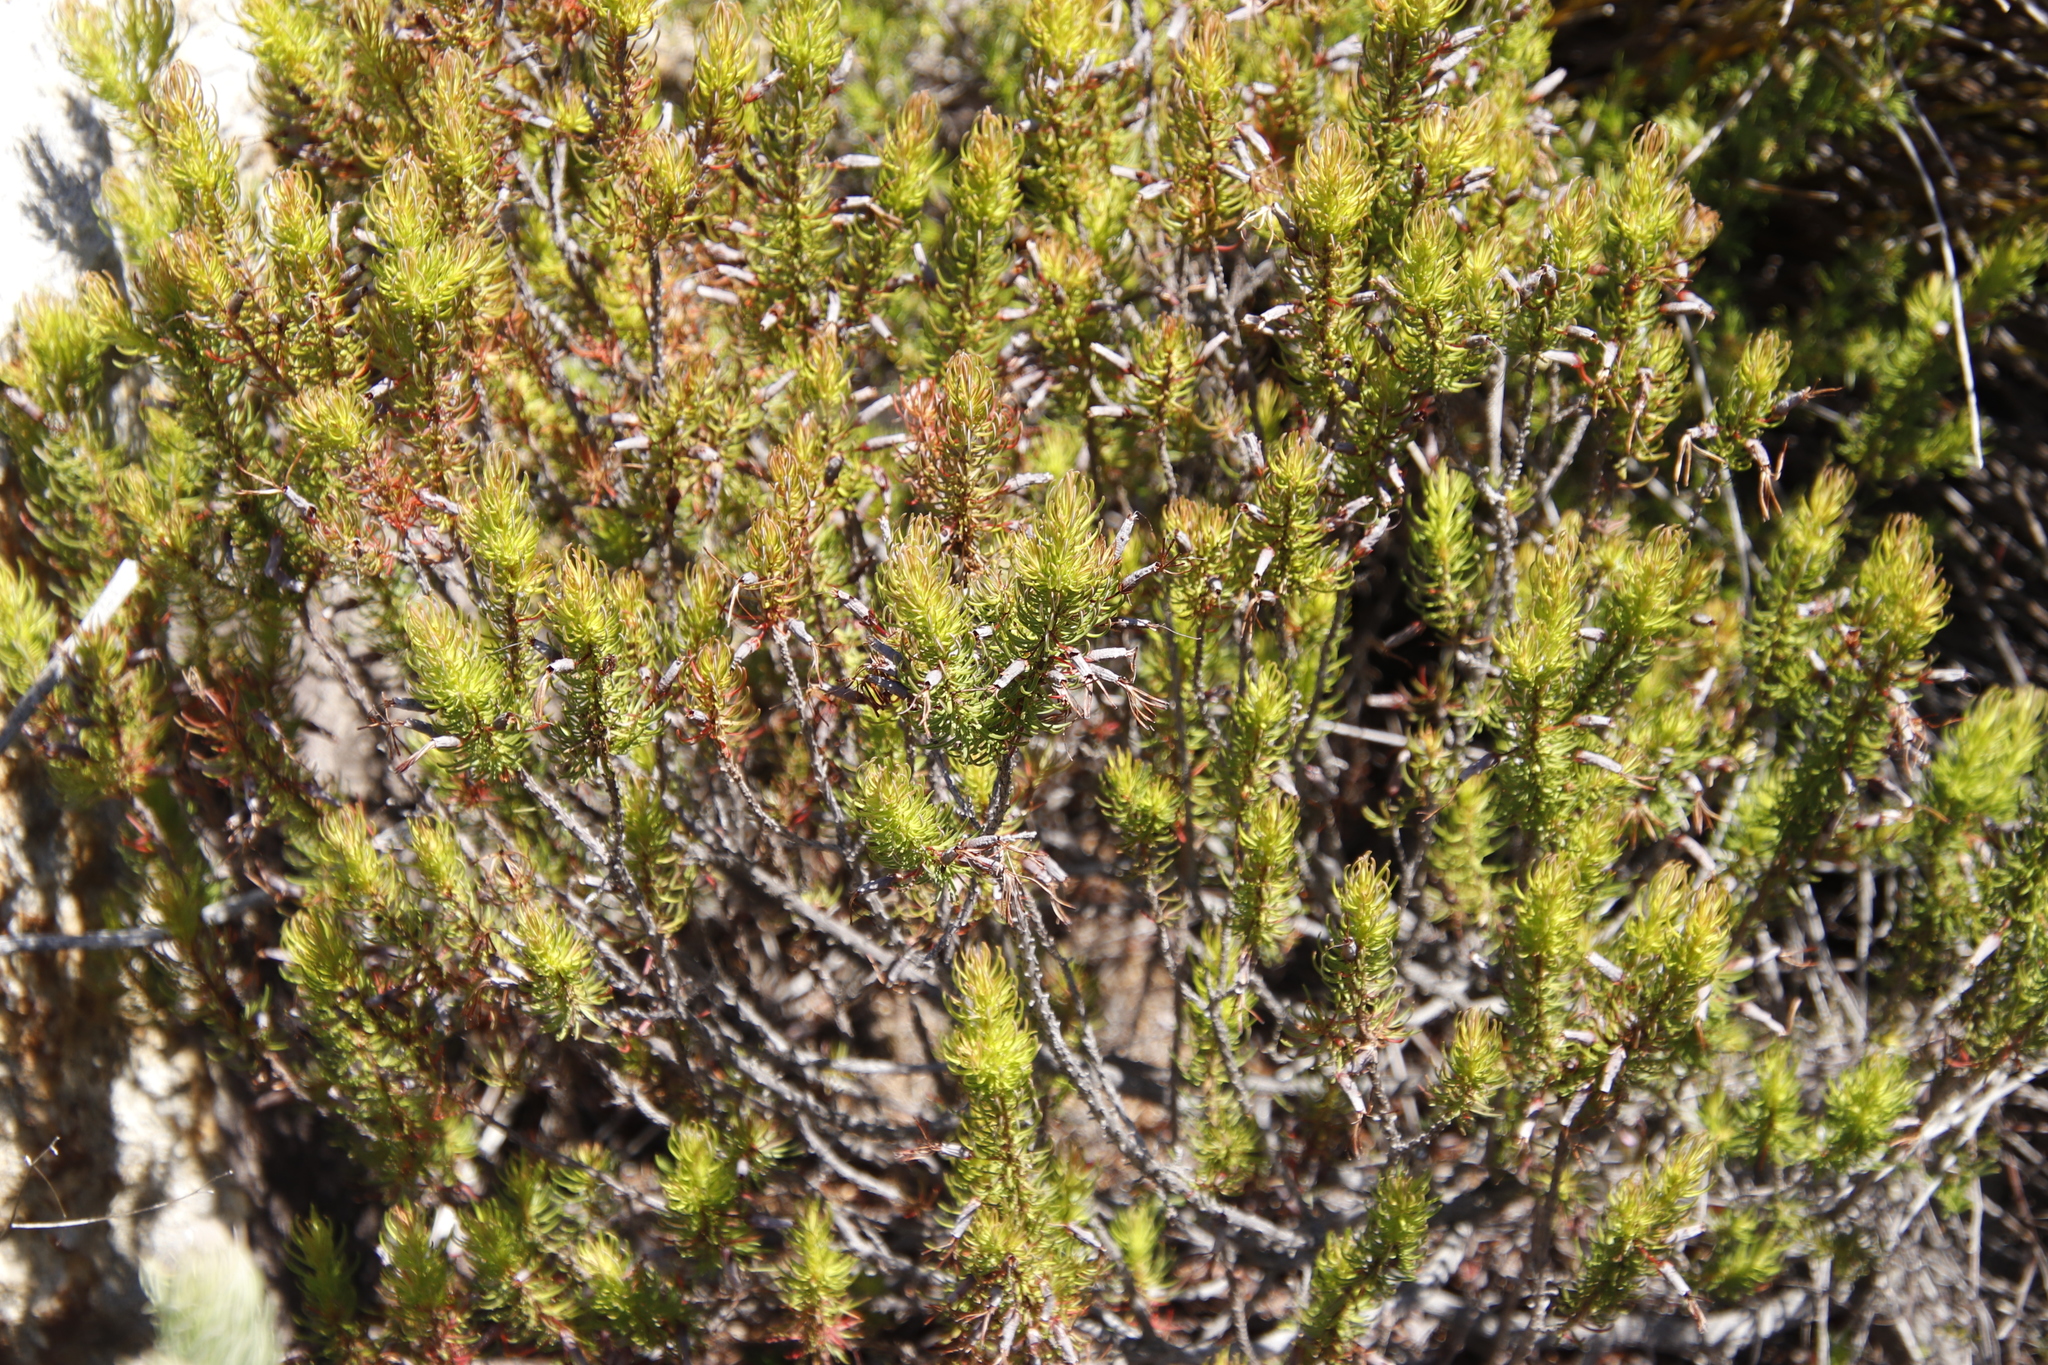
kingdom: Plantae
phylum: Tracheophyta
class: Magnoliopsida
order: Ericales
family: Ericaceae
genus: Erica
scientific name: Erica plukenetii
